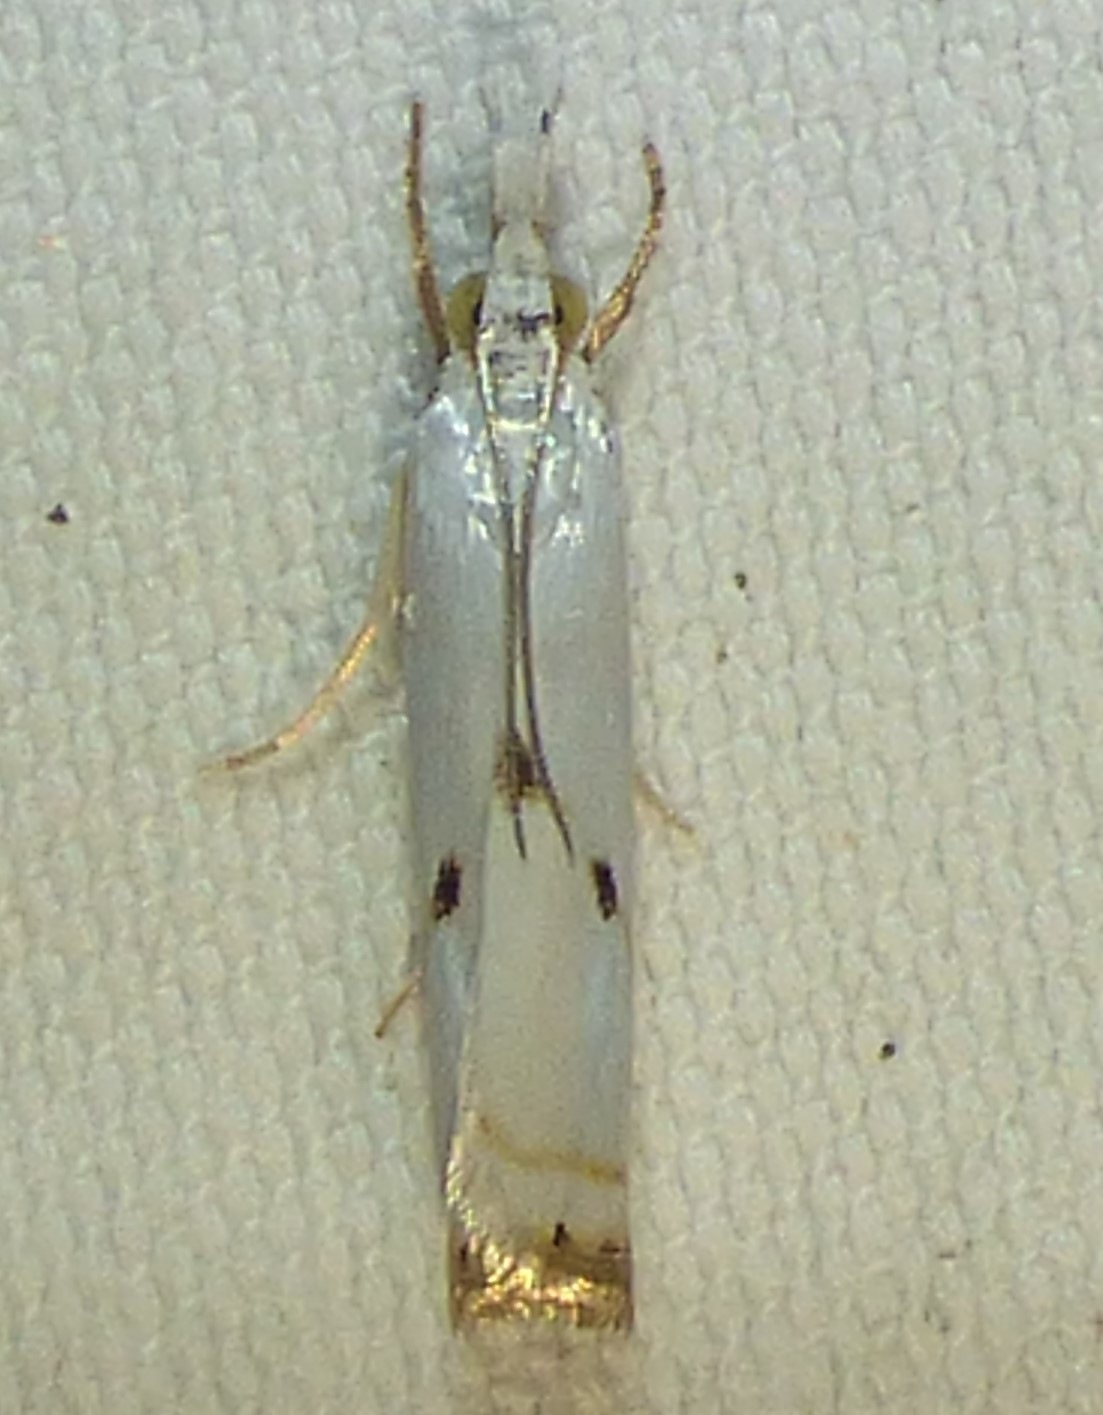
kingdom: Animalia
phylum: Arthropoda
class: Insecta
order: Lepidoptera
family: Crambidae
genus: Microcrambus
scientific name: Microcrambus biguttellus
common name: Gold-stripe grass-veneer moth
